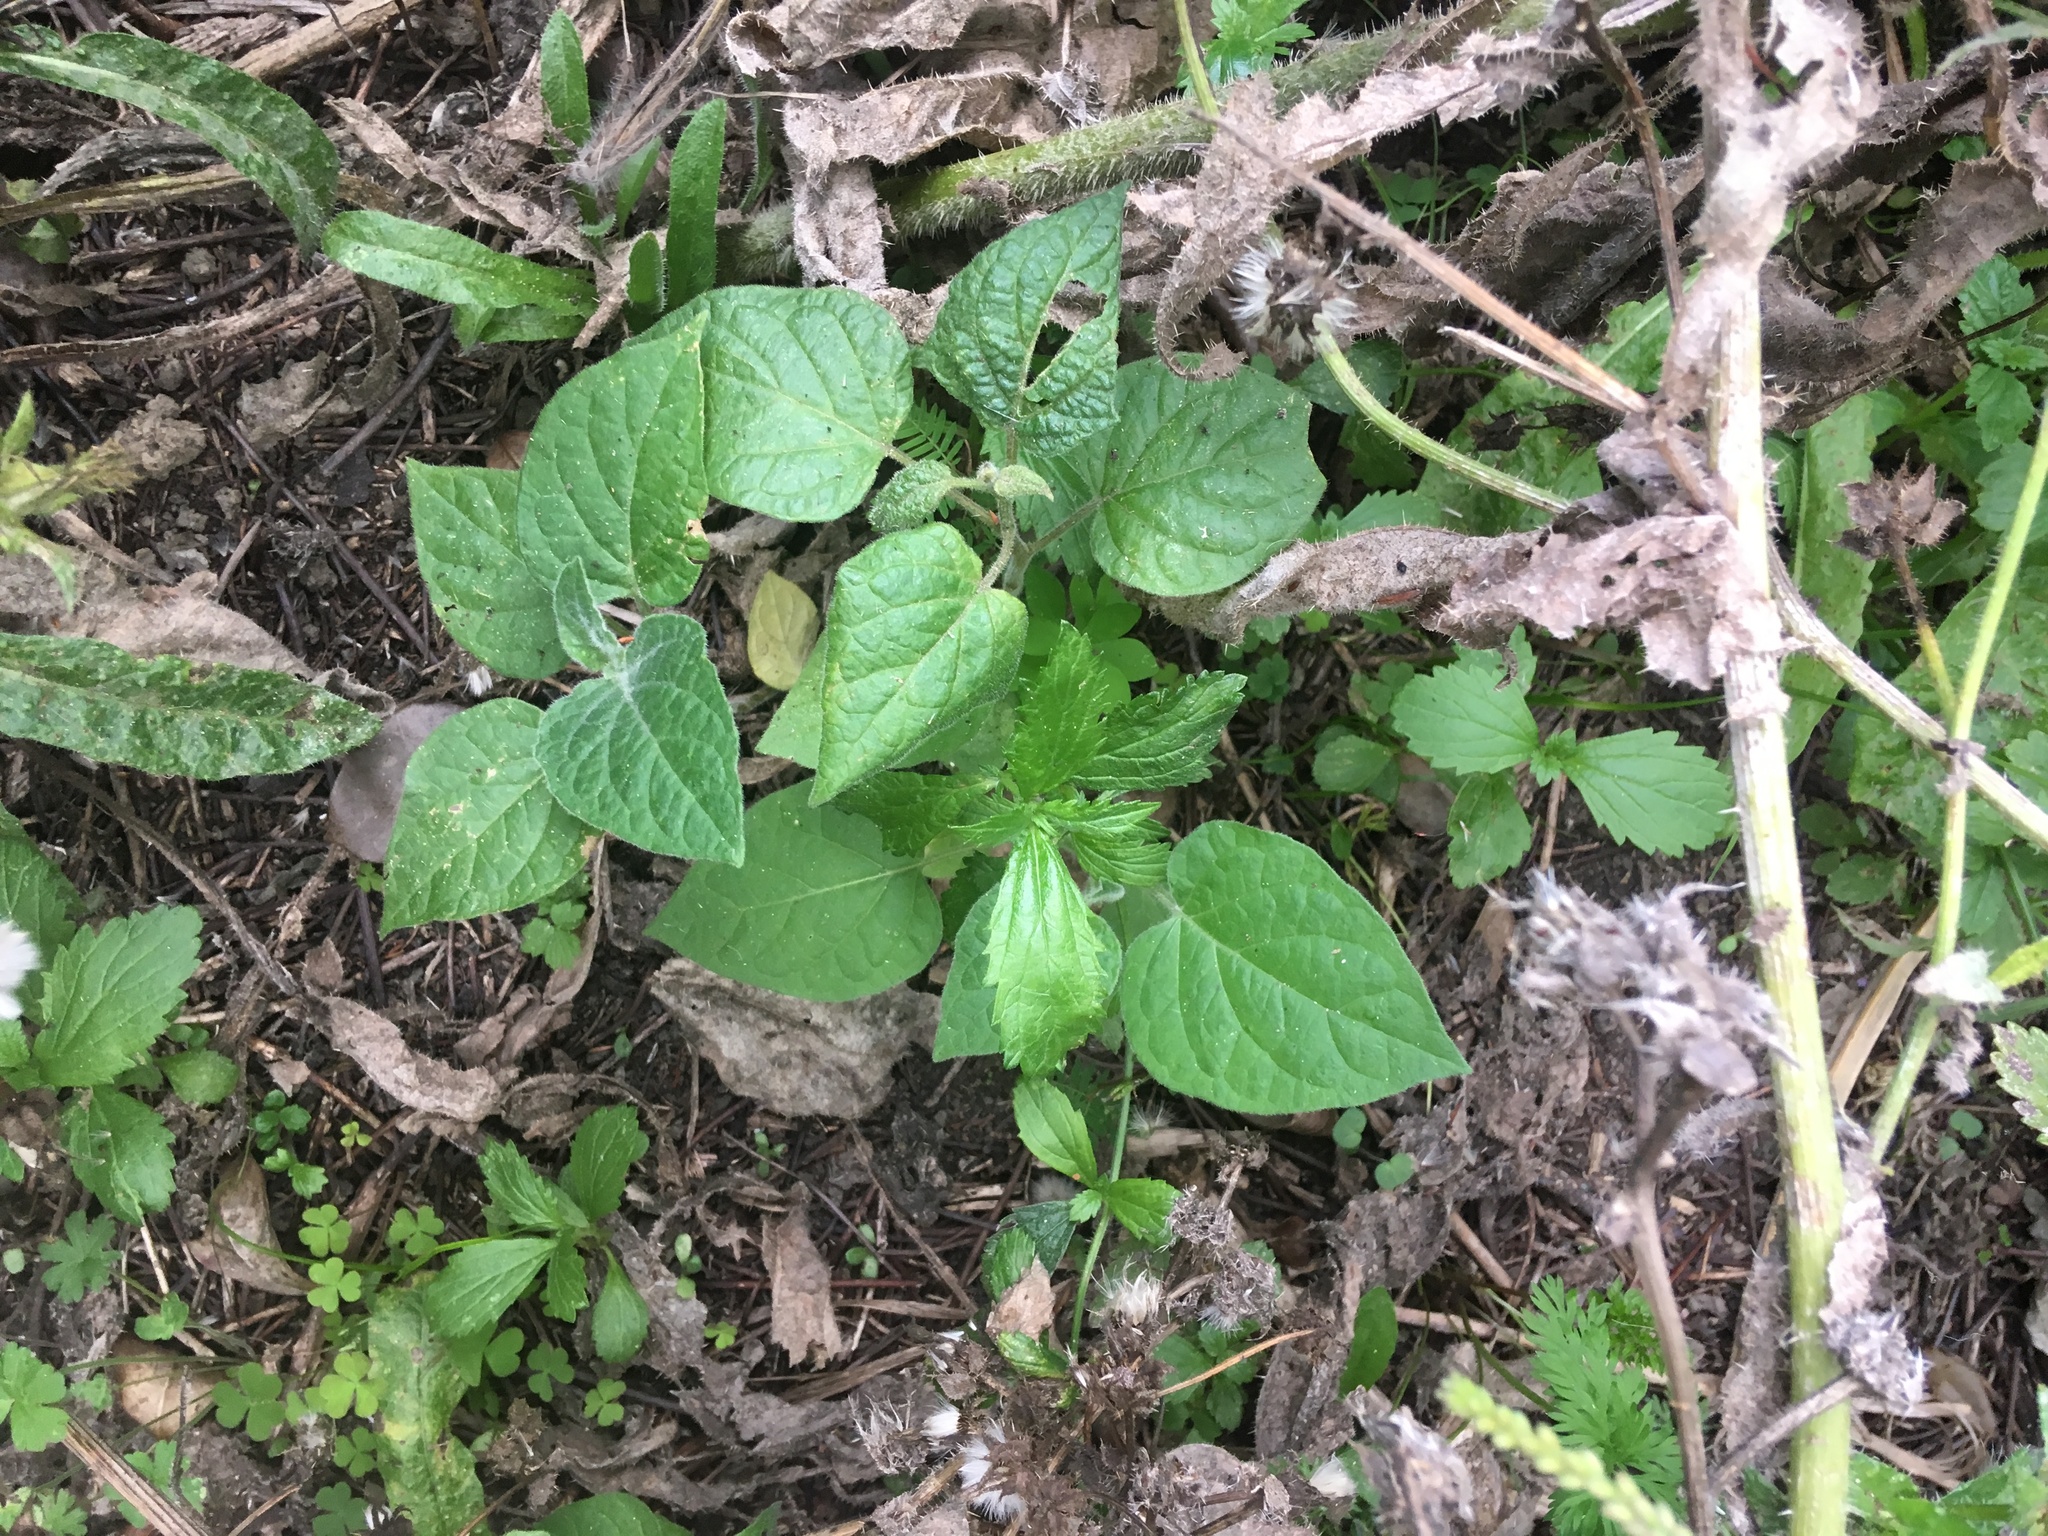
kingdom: Plantae
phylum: Tracheophyta
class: Magnoliopsida
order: Solanales
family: Solanaceae
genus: Physalis
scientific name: Physalis peruviana
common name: Cape-gooseberry
